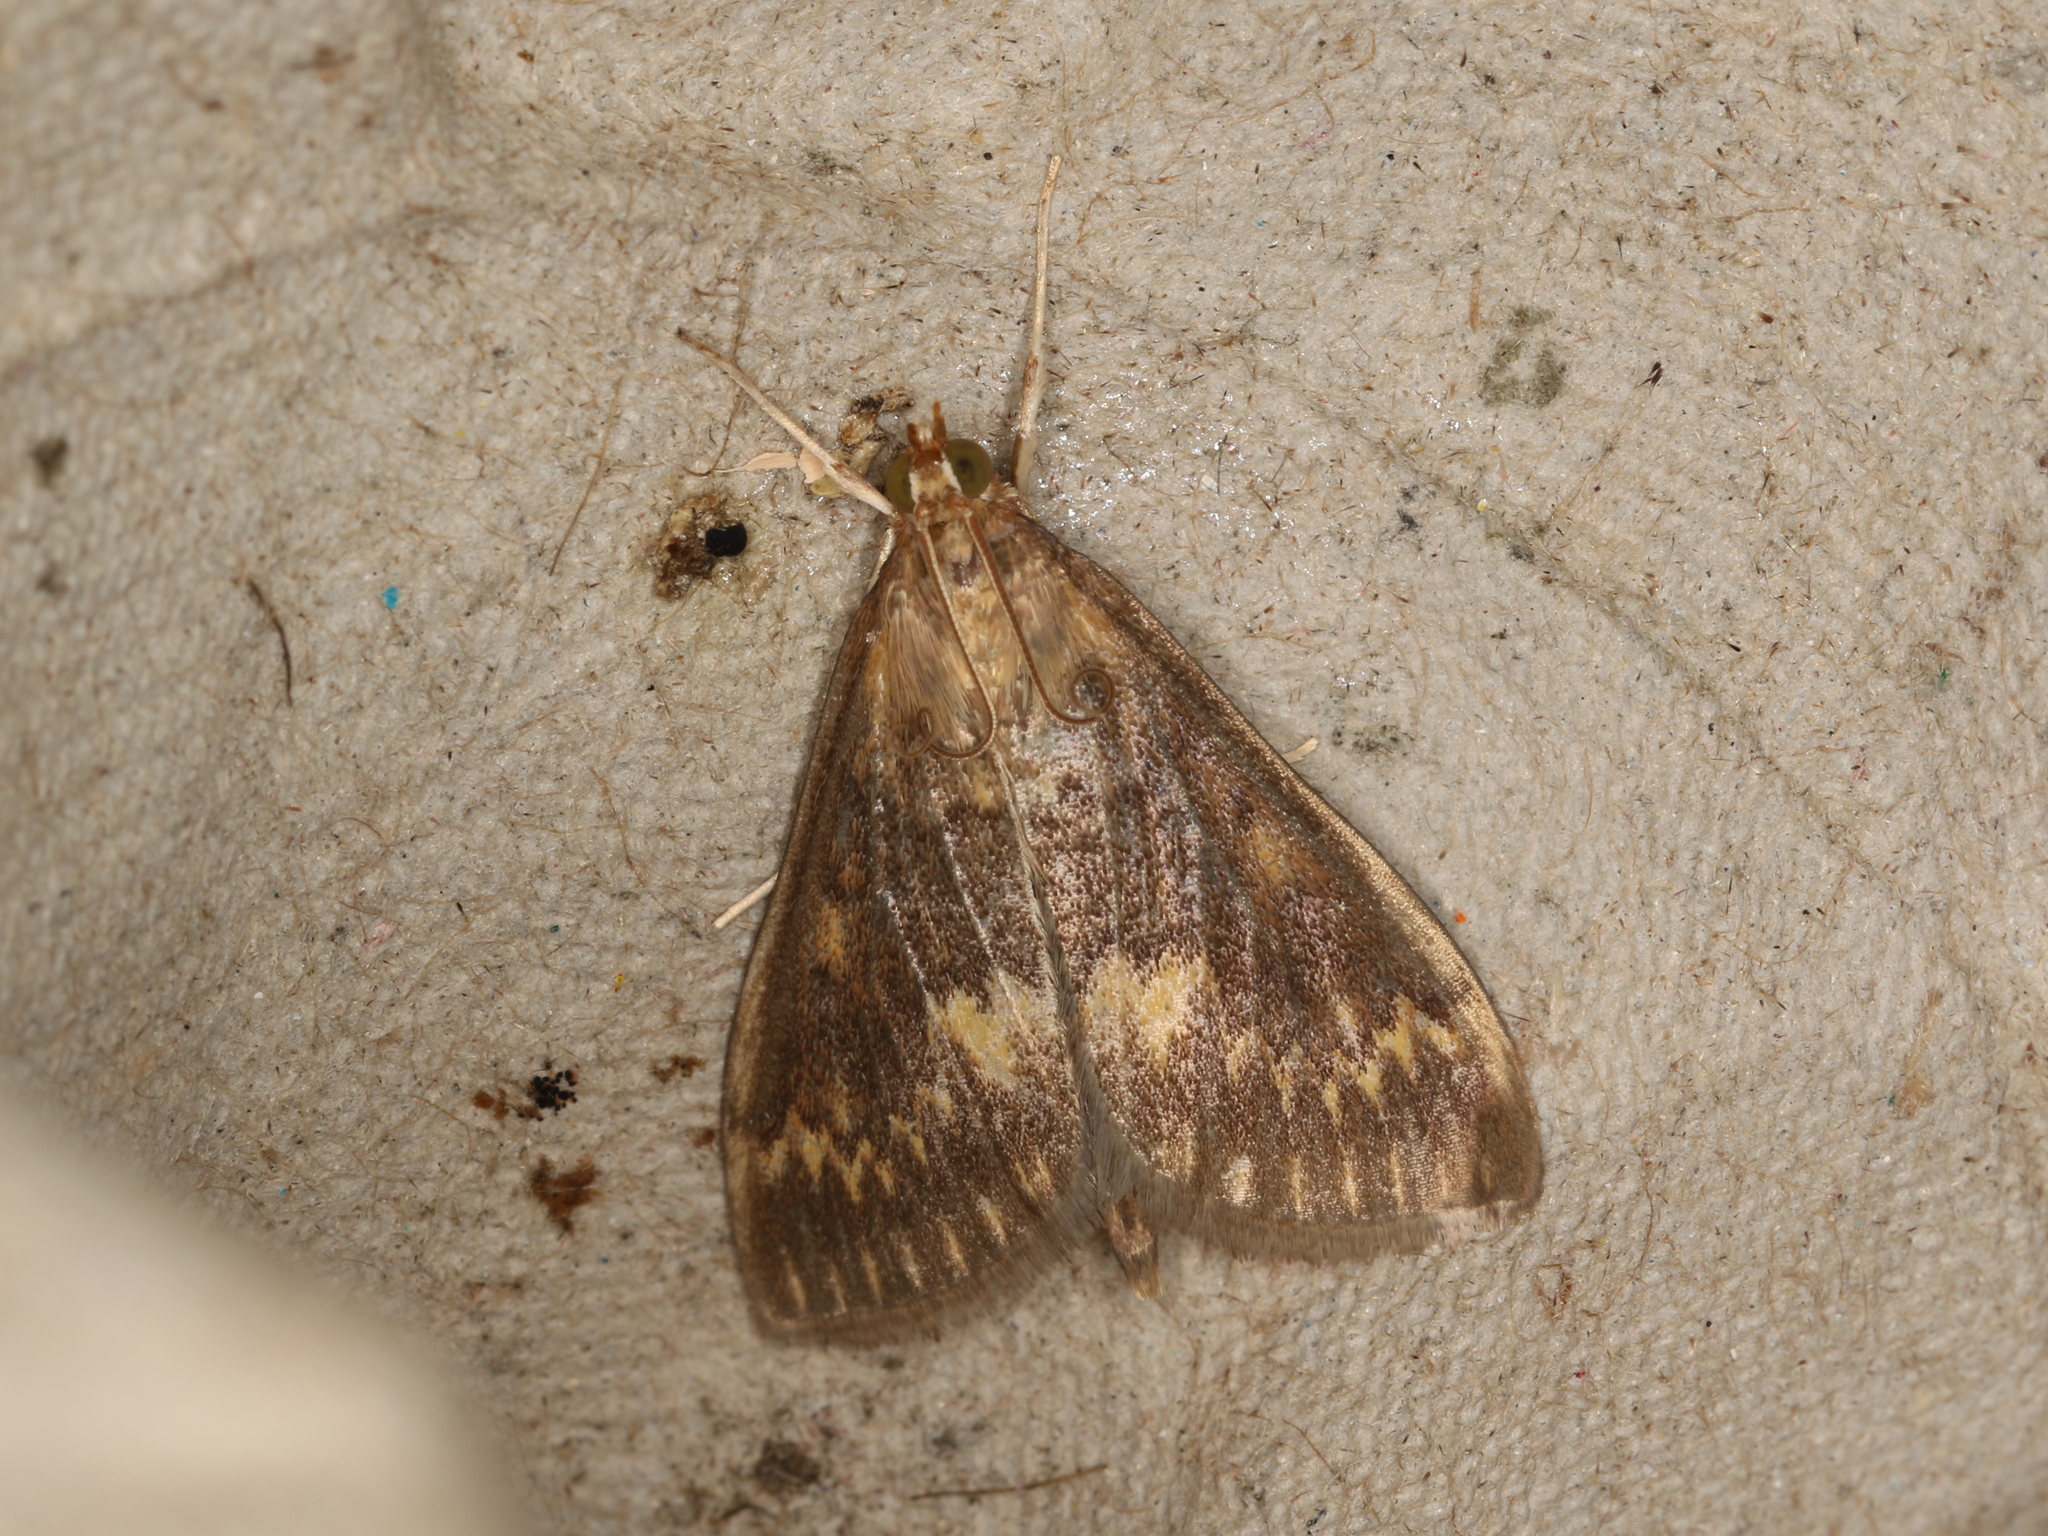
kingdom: Animalia
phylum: Arthropoda
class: Insecta
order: Lepidoptera
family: Crambidae
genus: Ostrinia
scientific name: Ostrinia nubilalis
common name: European corn borer
